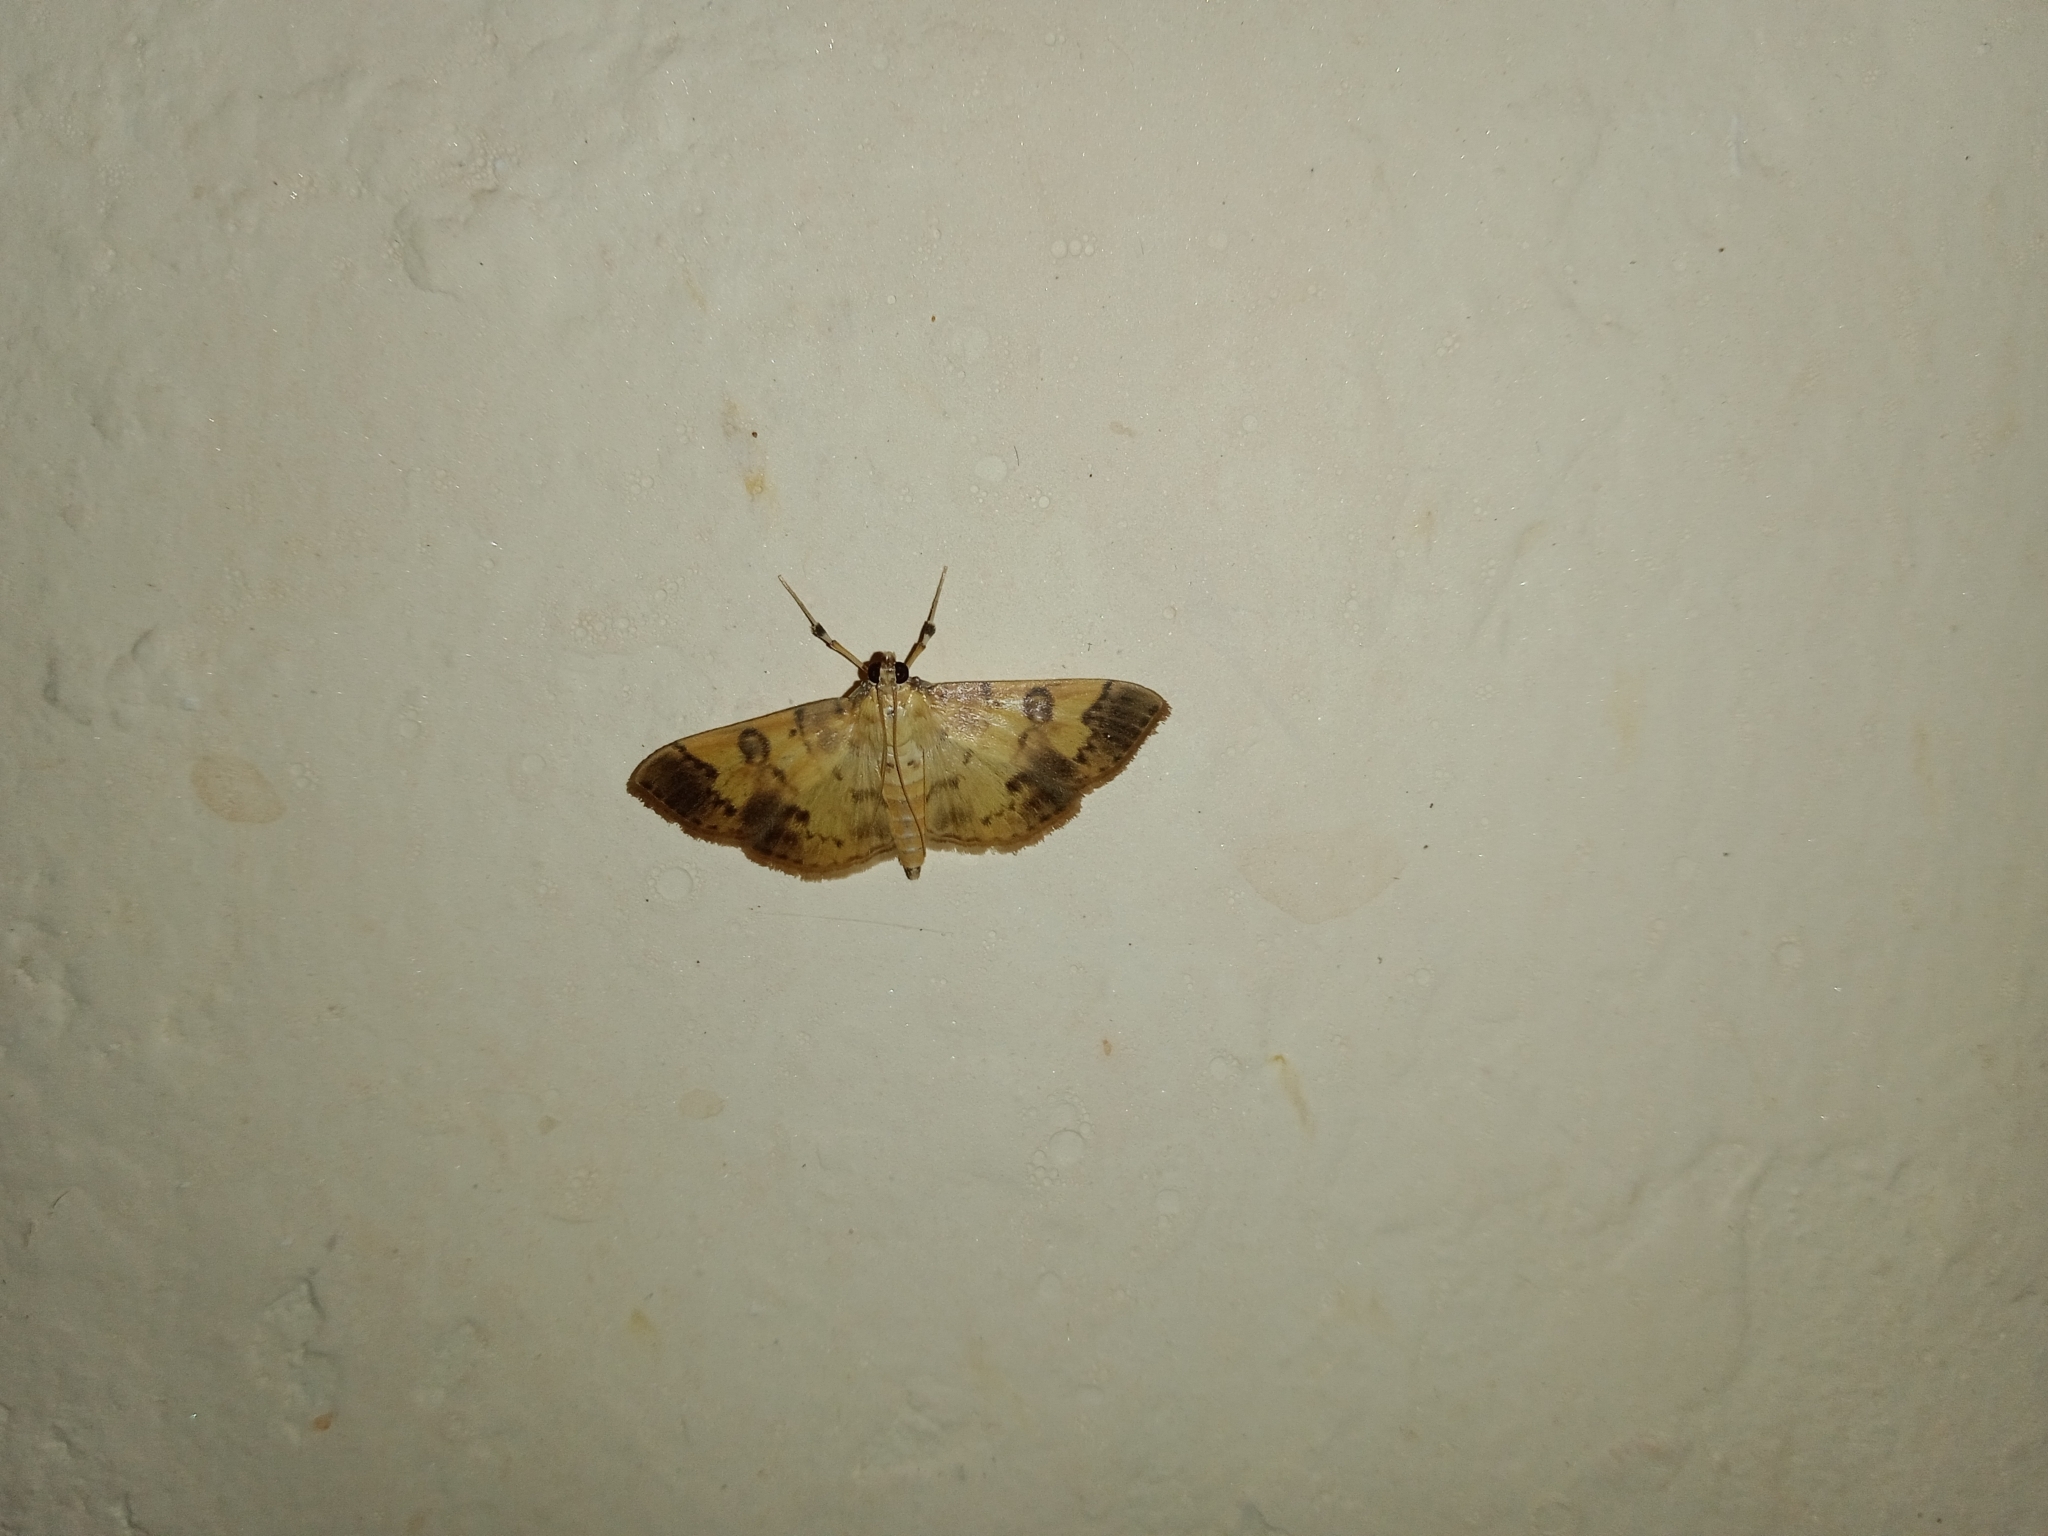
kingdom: Animalia
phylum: Arthropoda
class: Insecta
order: Lepidoptera
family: Crambidae
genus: Patania
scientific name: Patania iopasalis
